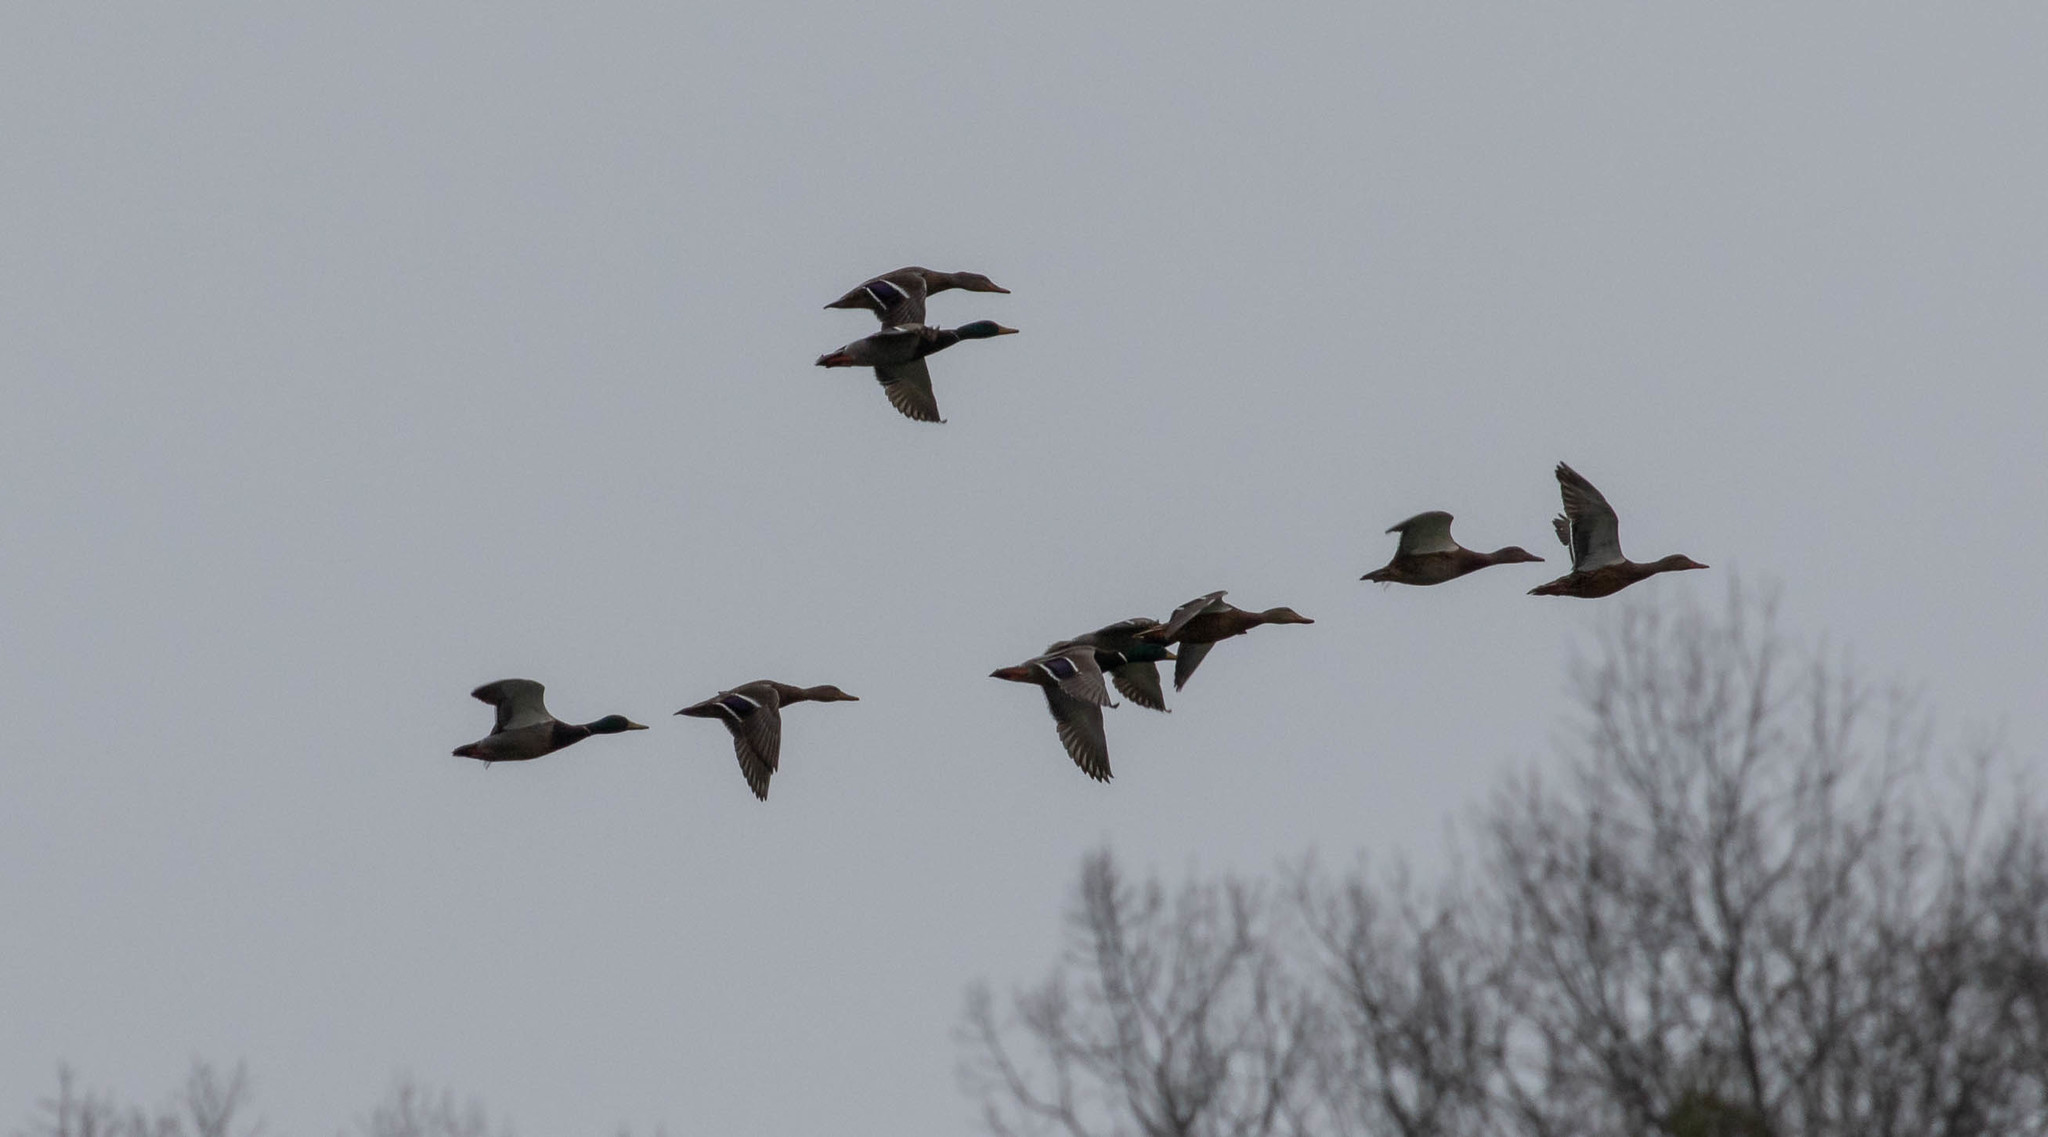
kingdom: Animalia
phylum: Chordata
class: Aves
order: Anseriformes
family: Anatidae
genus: Anas
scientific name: Anas platyrhynchos
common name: Mallard
